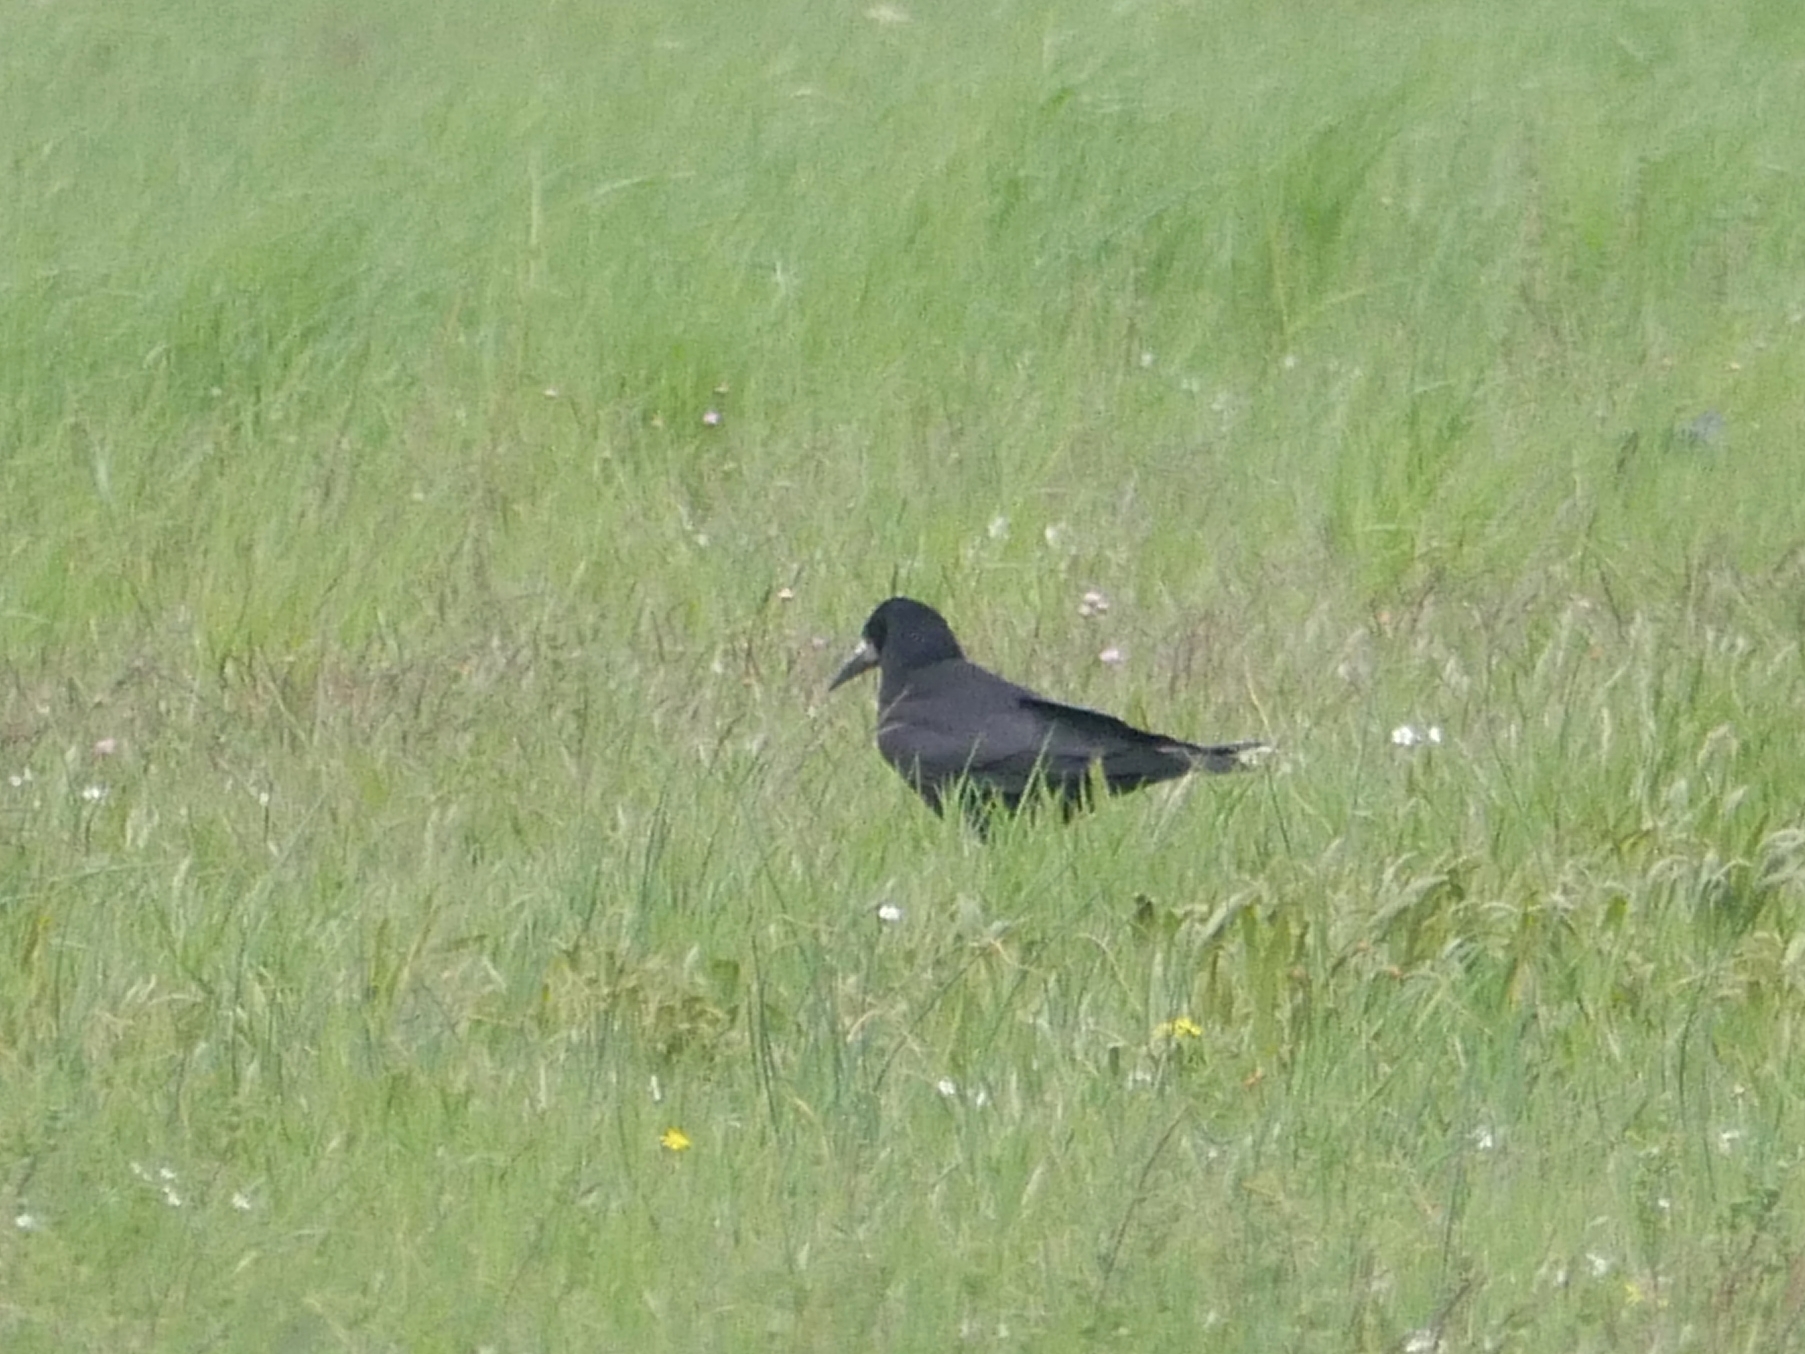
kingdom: Animalia
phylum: Chordata
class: Aves
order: Passeriformes
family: Corvidae
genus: Corvus
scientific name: Corvus frugilegus
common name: Rook
